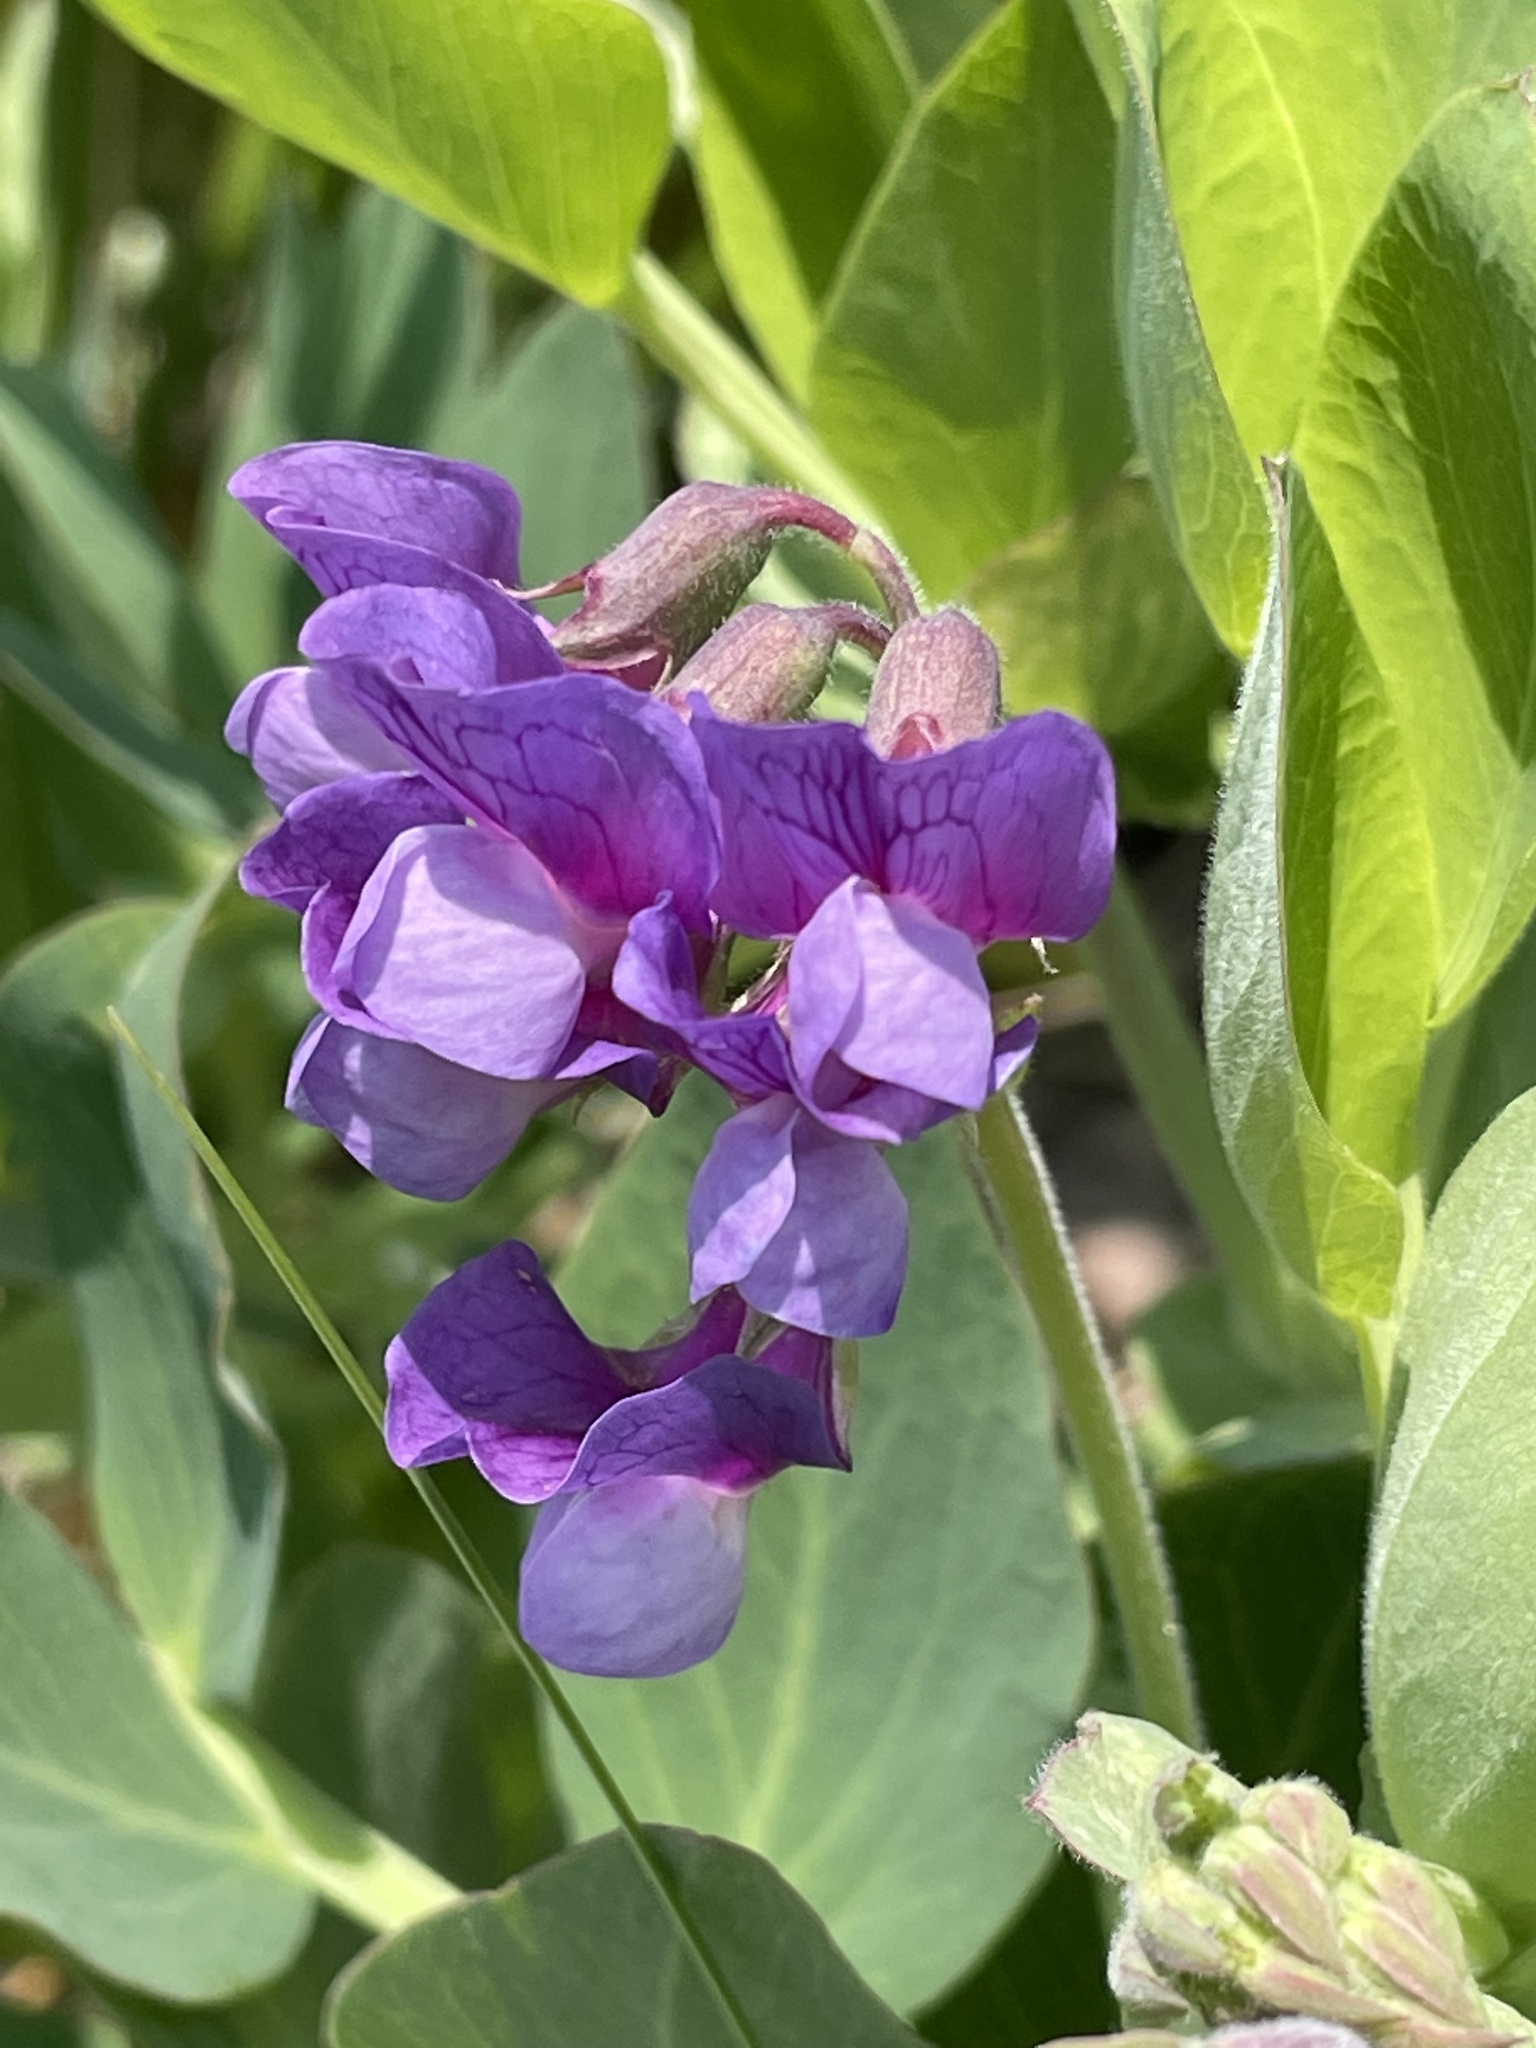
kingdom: Plantae
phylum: Tracheophyta
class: Magnoliopsida
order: Fabales
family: Fabaceae
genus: Lathyrus
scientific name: Lathyrus japonicus
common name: Sea pea
